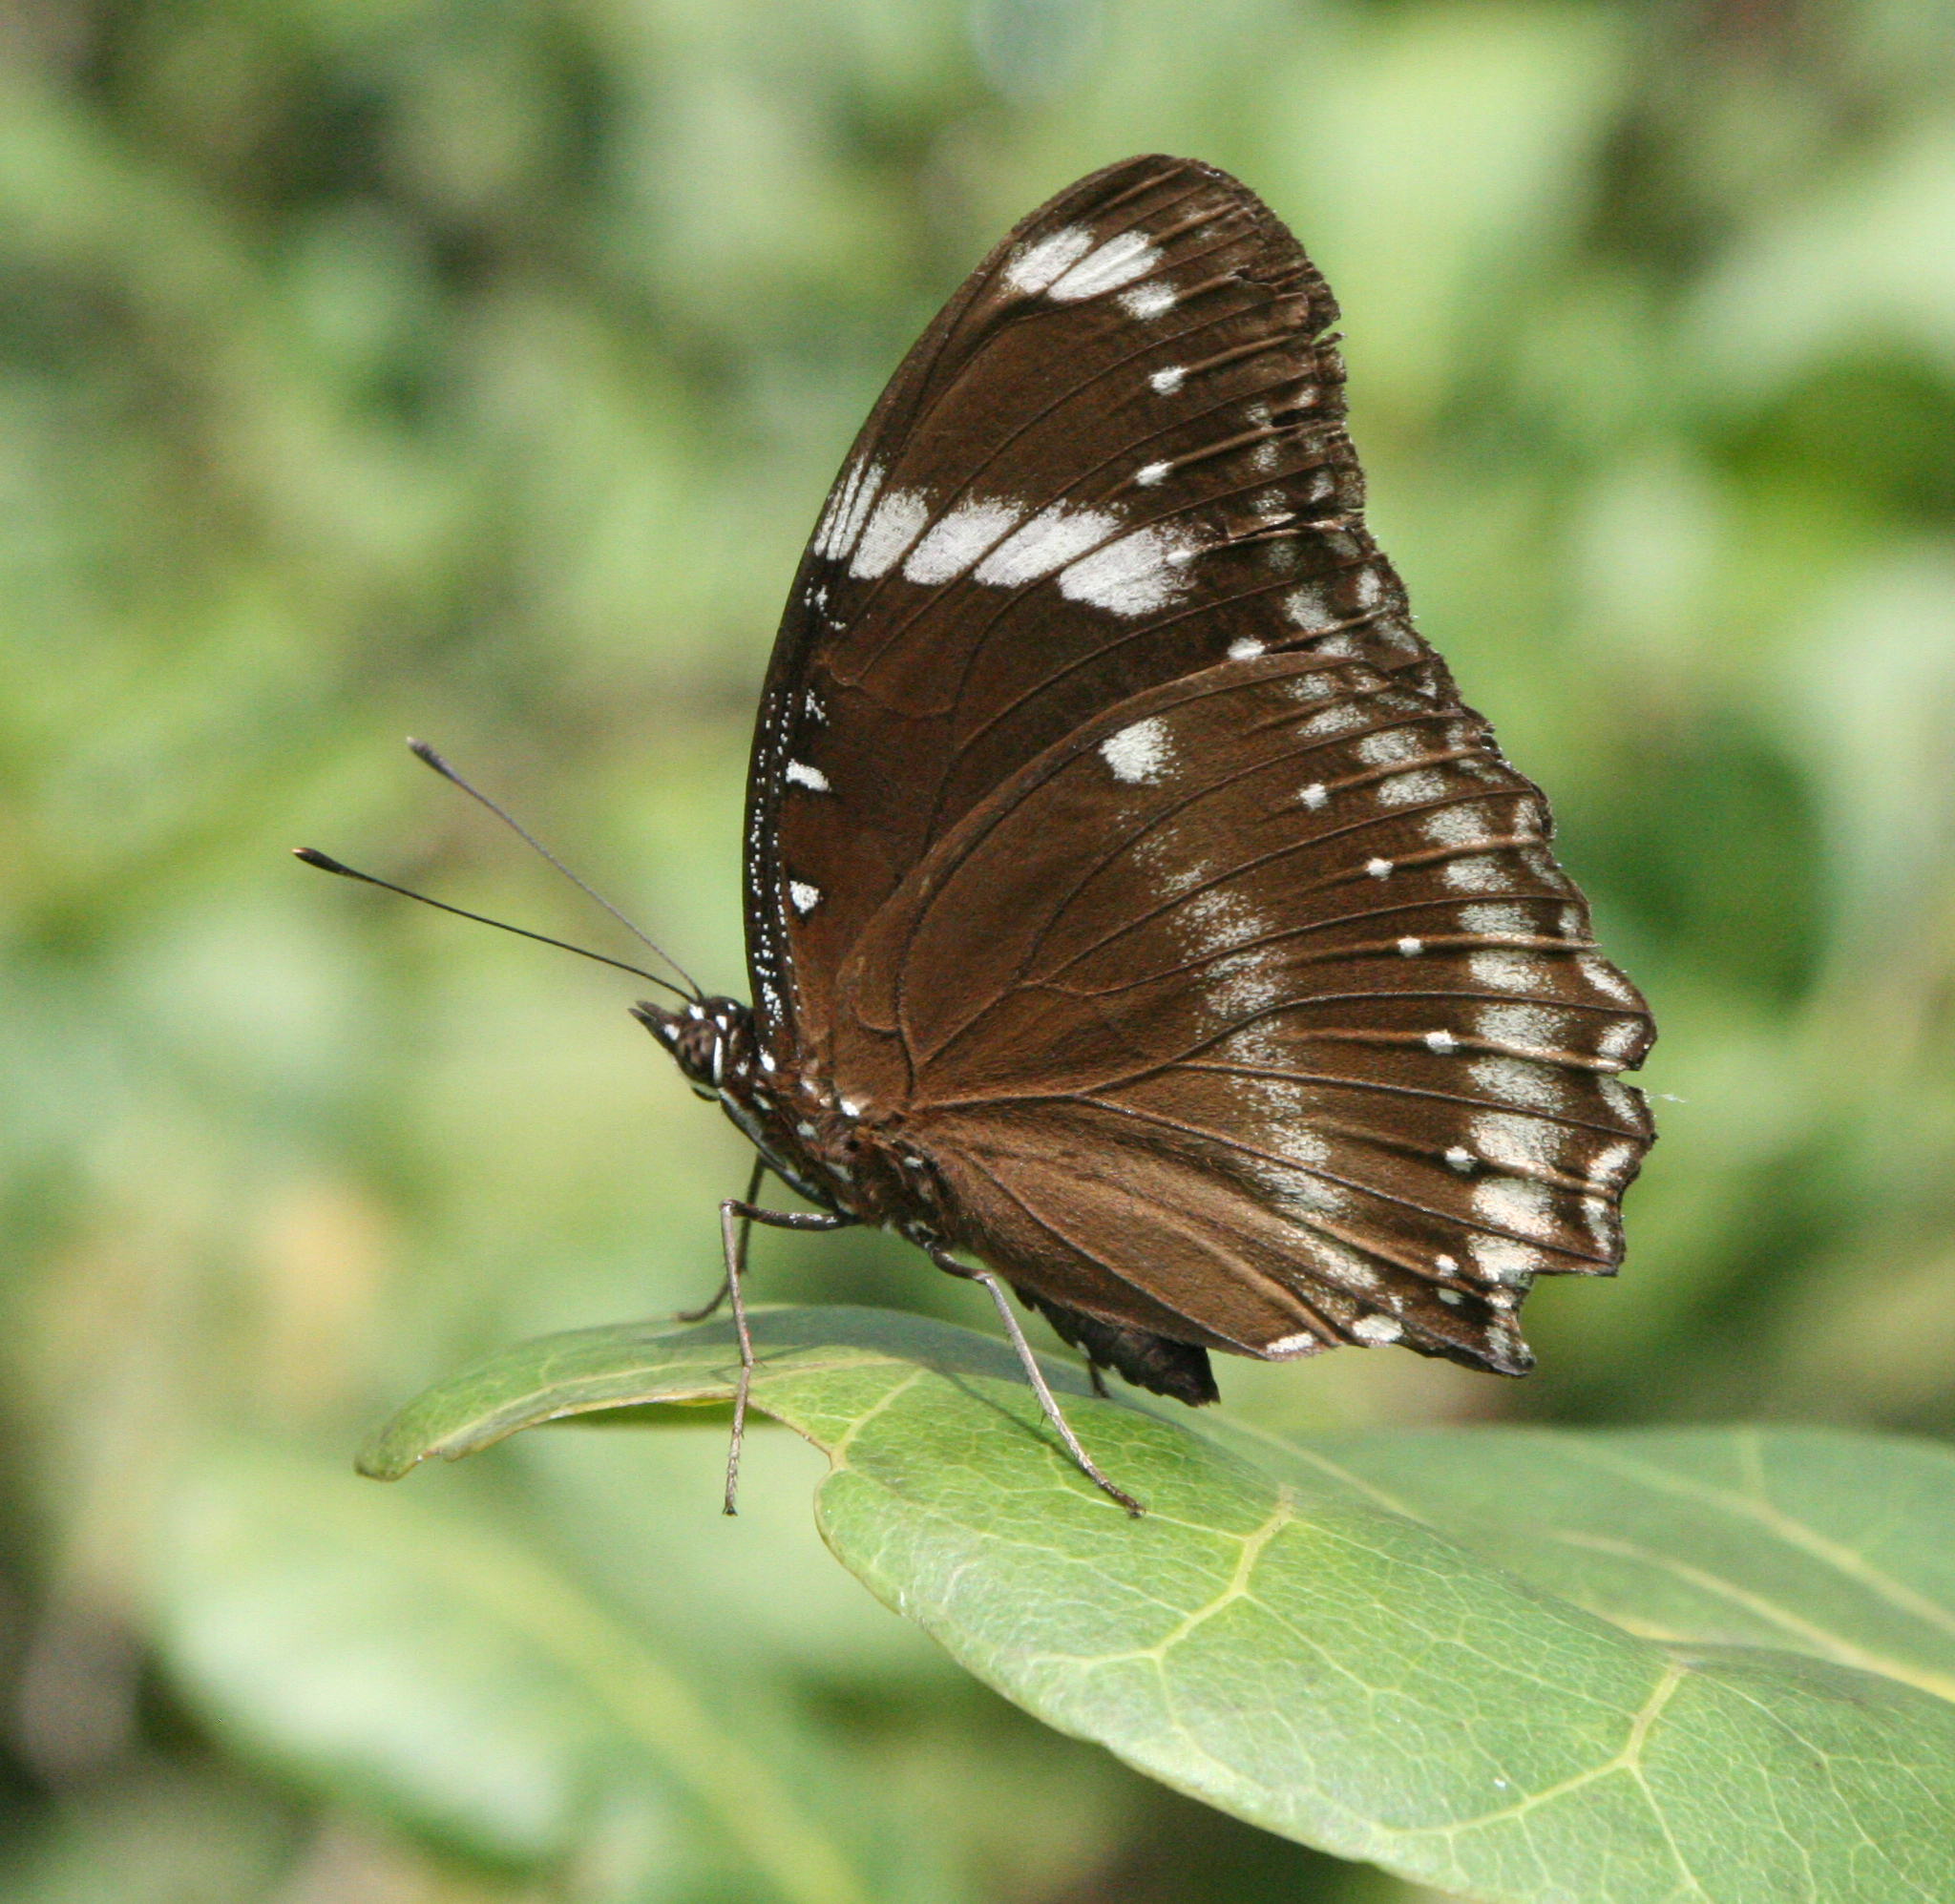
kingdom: Animalia
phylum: Arthropoda
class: Insecta
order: Lepidoptera
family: Nymphalidae
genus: Hypolimnas
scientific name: Hypolimnas bolina
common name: Great eggfly
